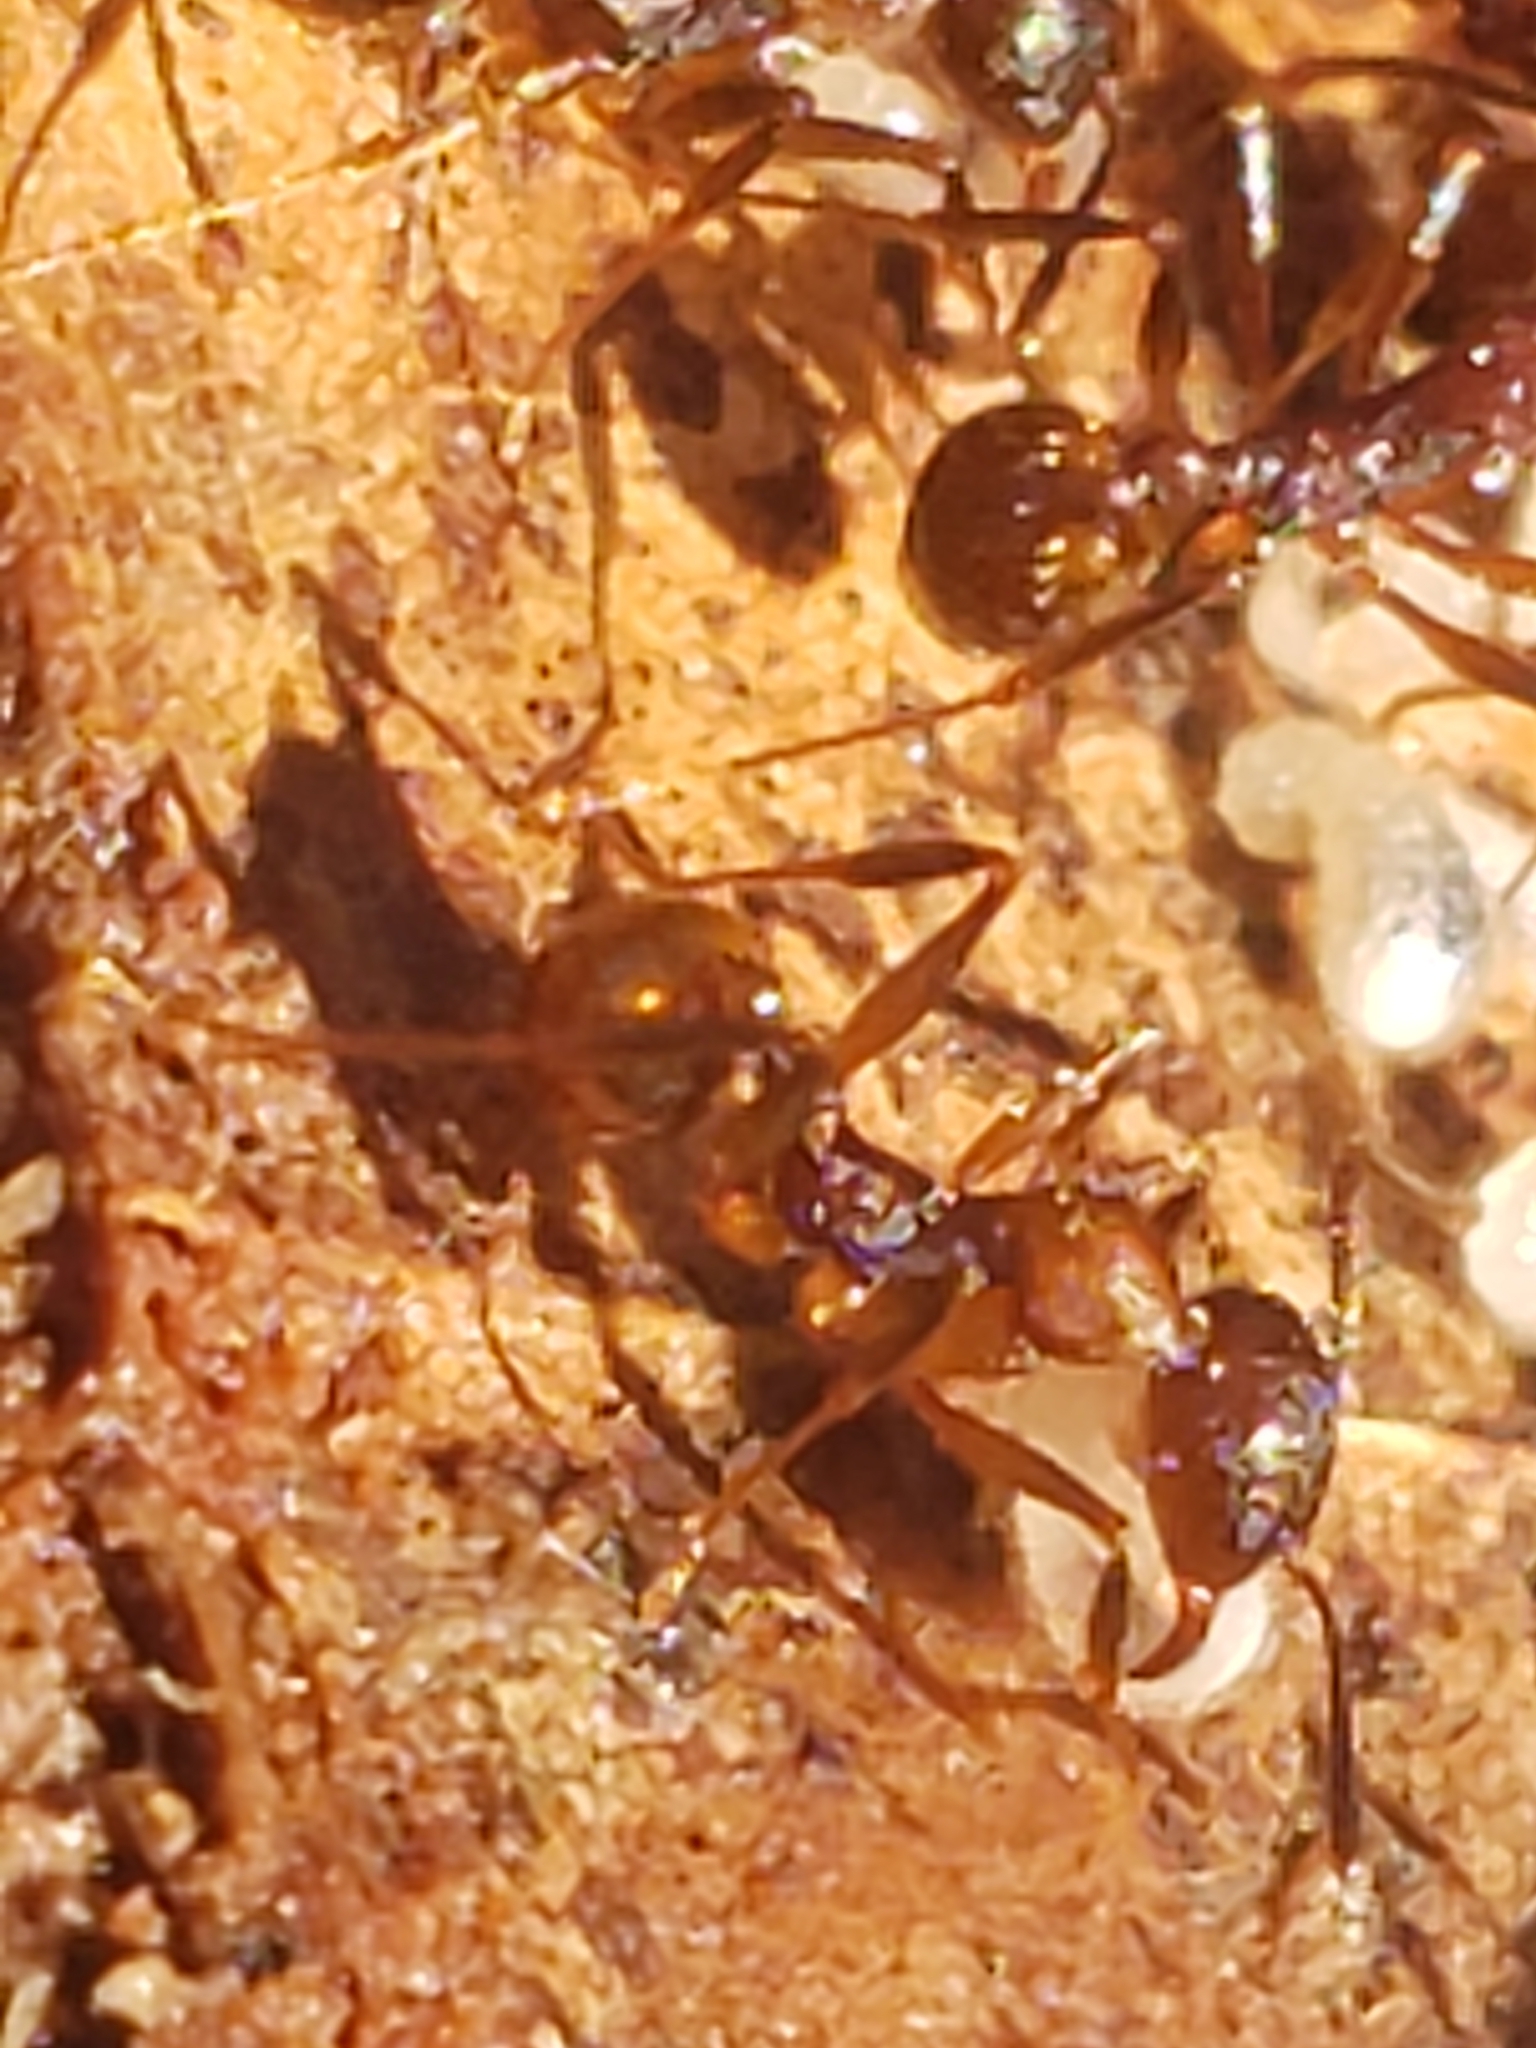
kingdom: Animalia
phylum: Arthropoda
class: Insecta
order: Hymenoptera
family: Formicidae
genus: Aphaenogaster
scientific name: Aphaenogaster fulva
